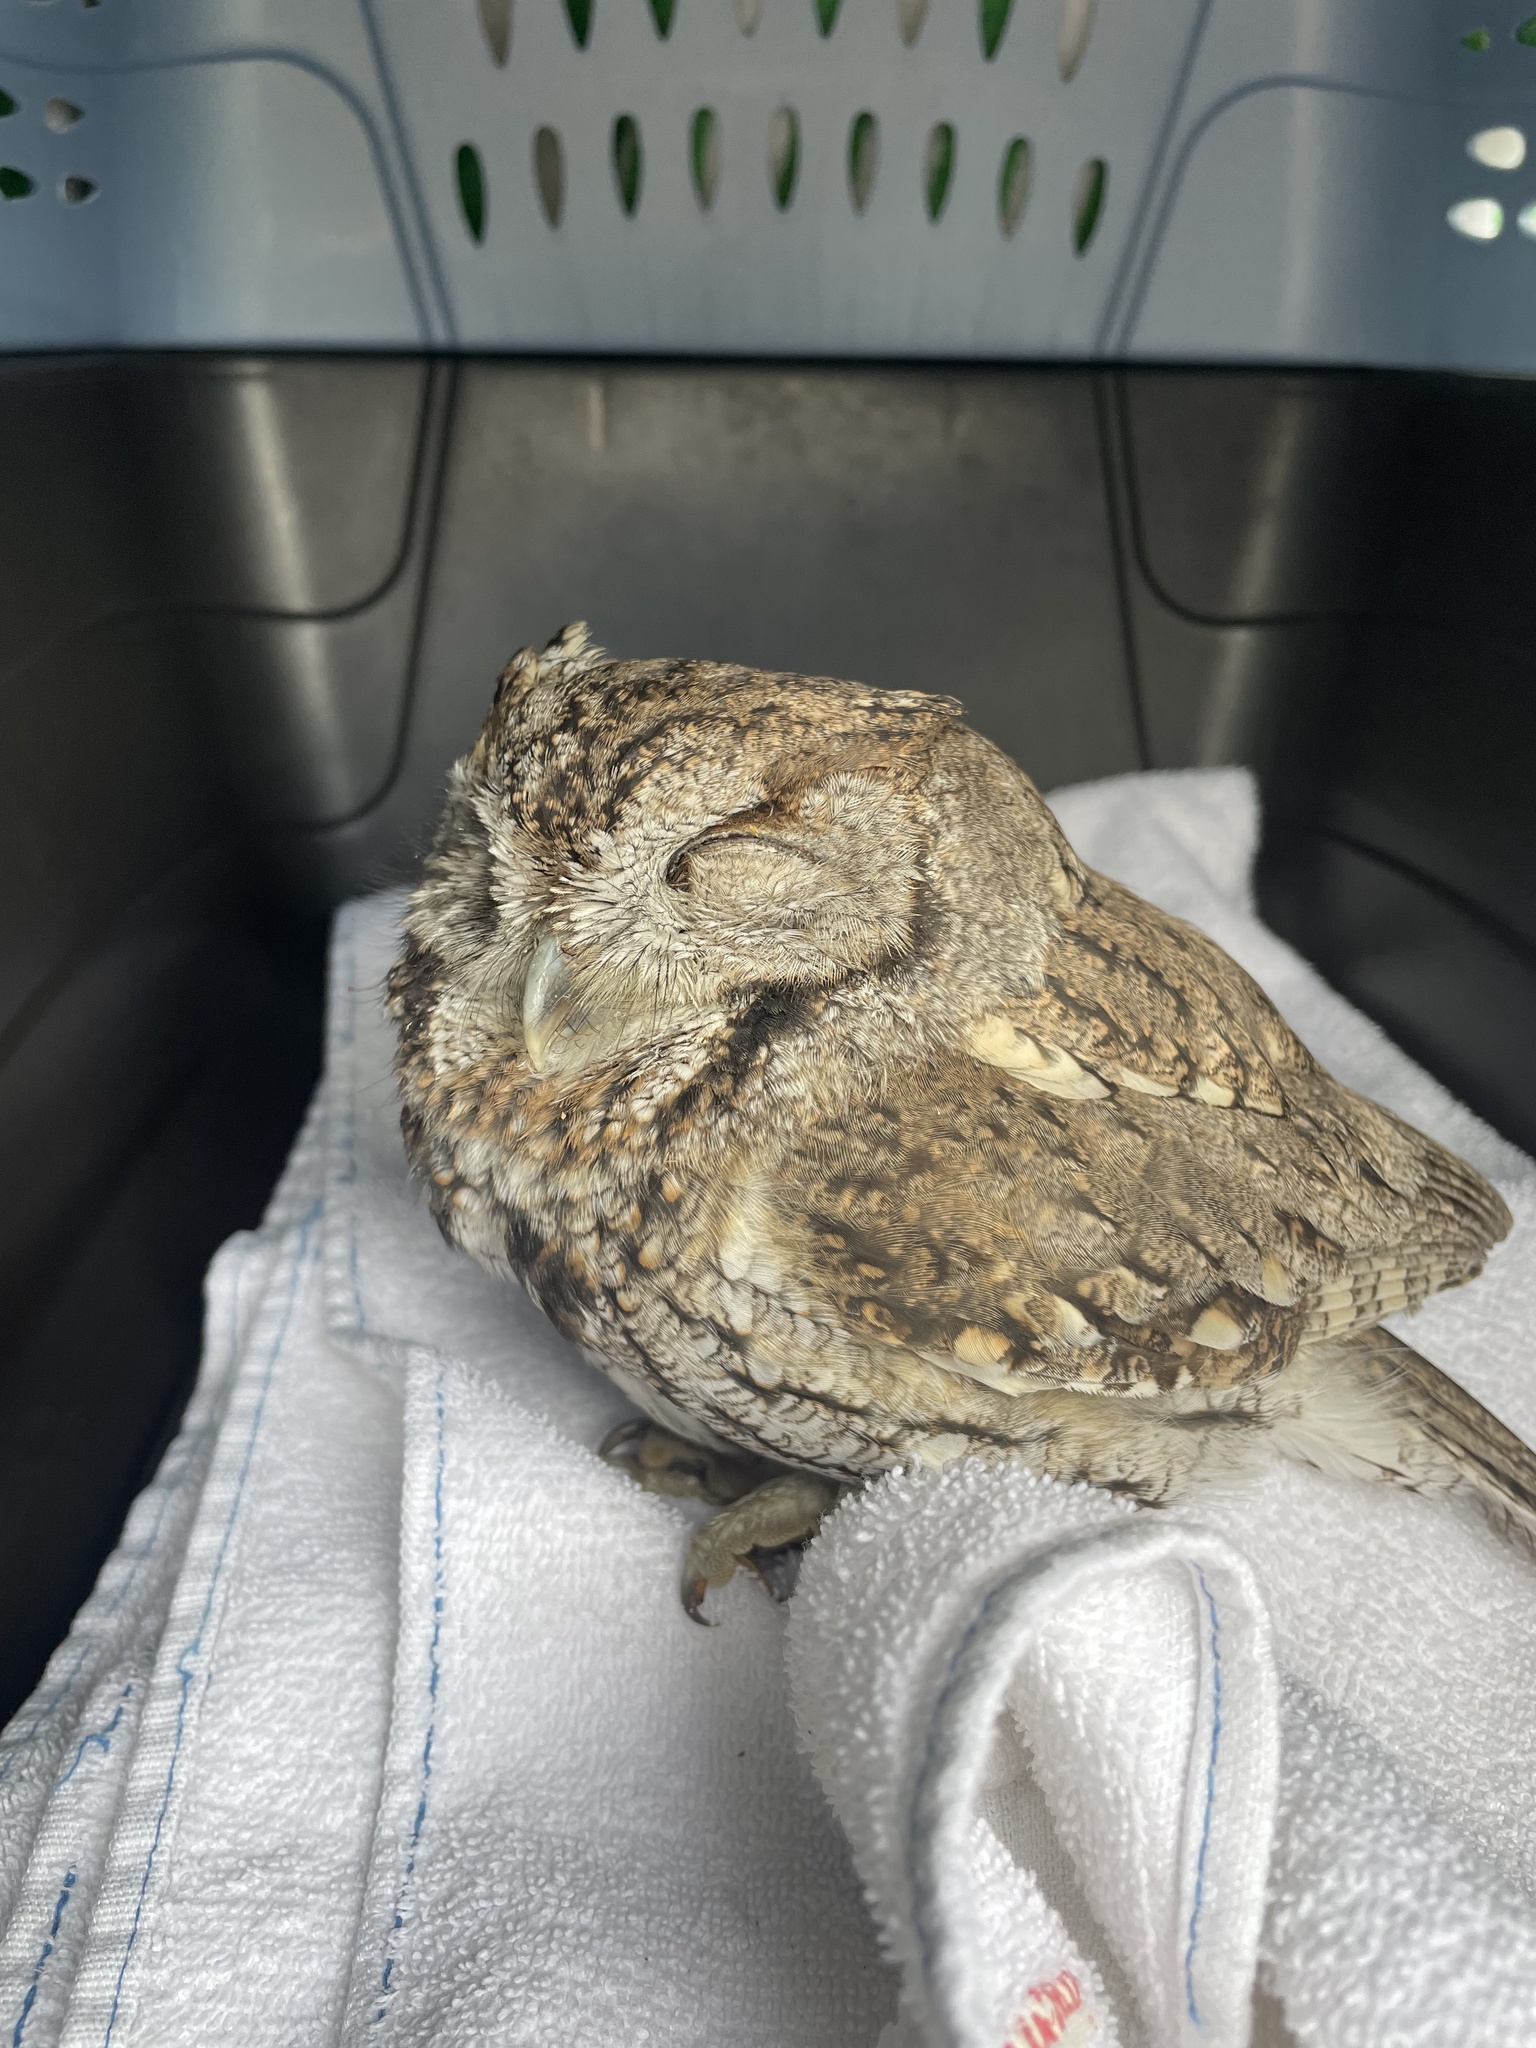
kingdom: Animalia
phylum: Chordata
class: Aves
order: Strigiformes
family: Strigidae
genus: Megascops
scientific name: Megascops kennicottii
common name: Western screech-owl
